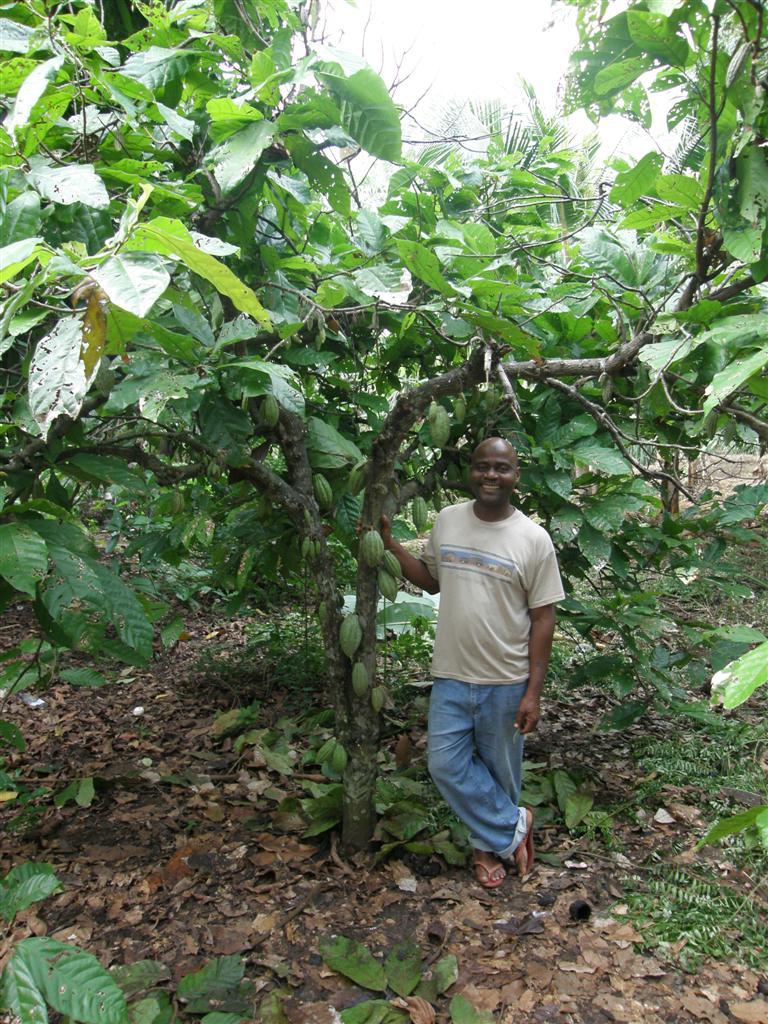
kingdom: Plantae
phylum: Tracheophyta
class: Magnoliopsida
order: Malvales
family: Malvaceae
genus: Theobroma
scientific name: Theobroma cacao
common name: Cocoa
